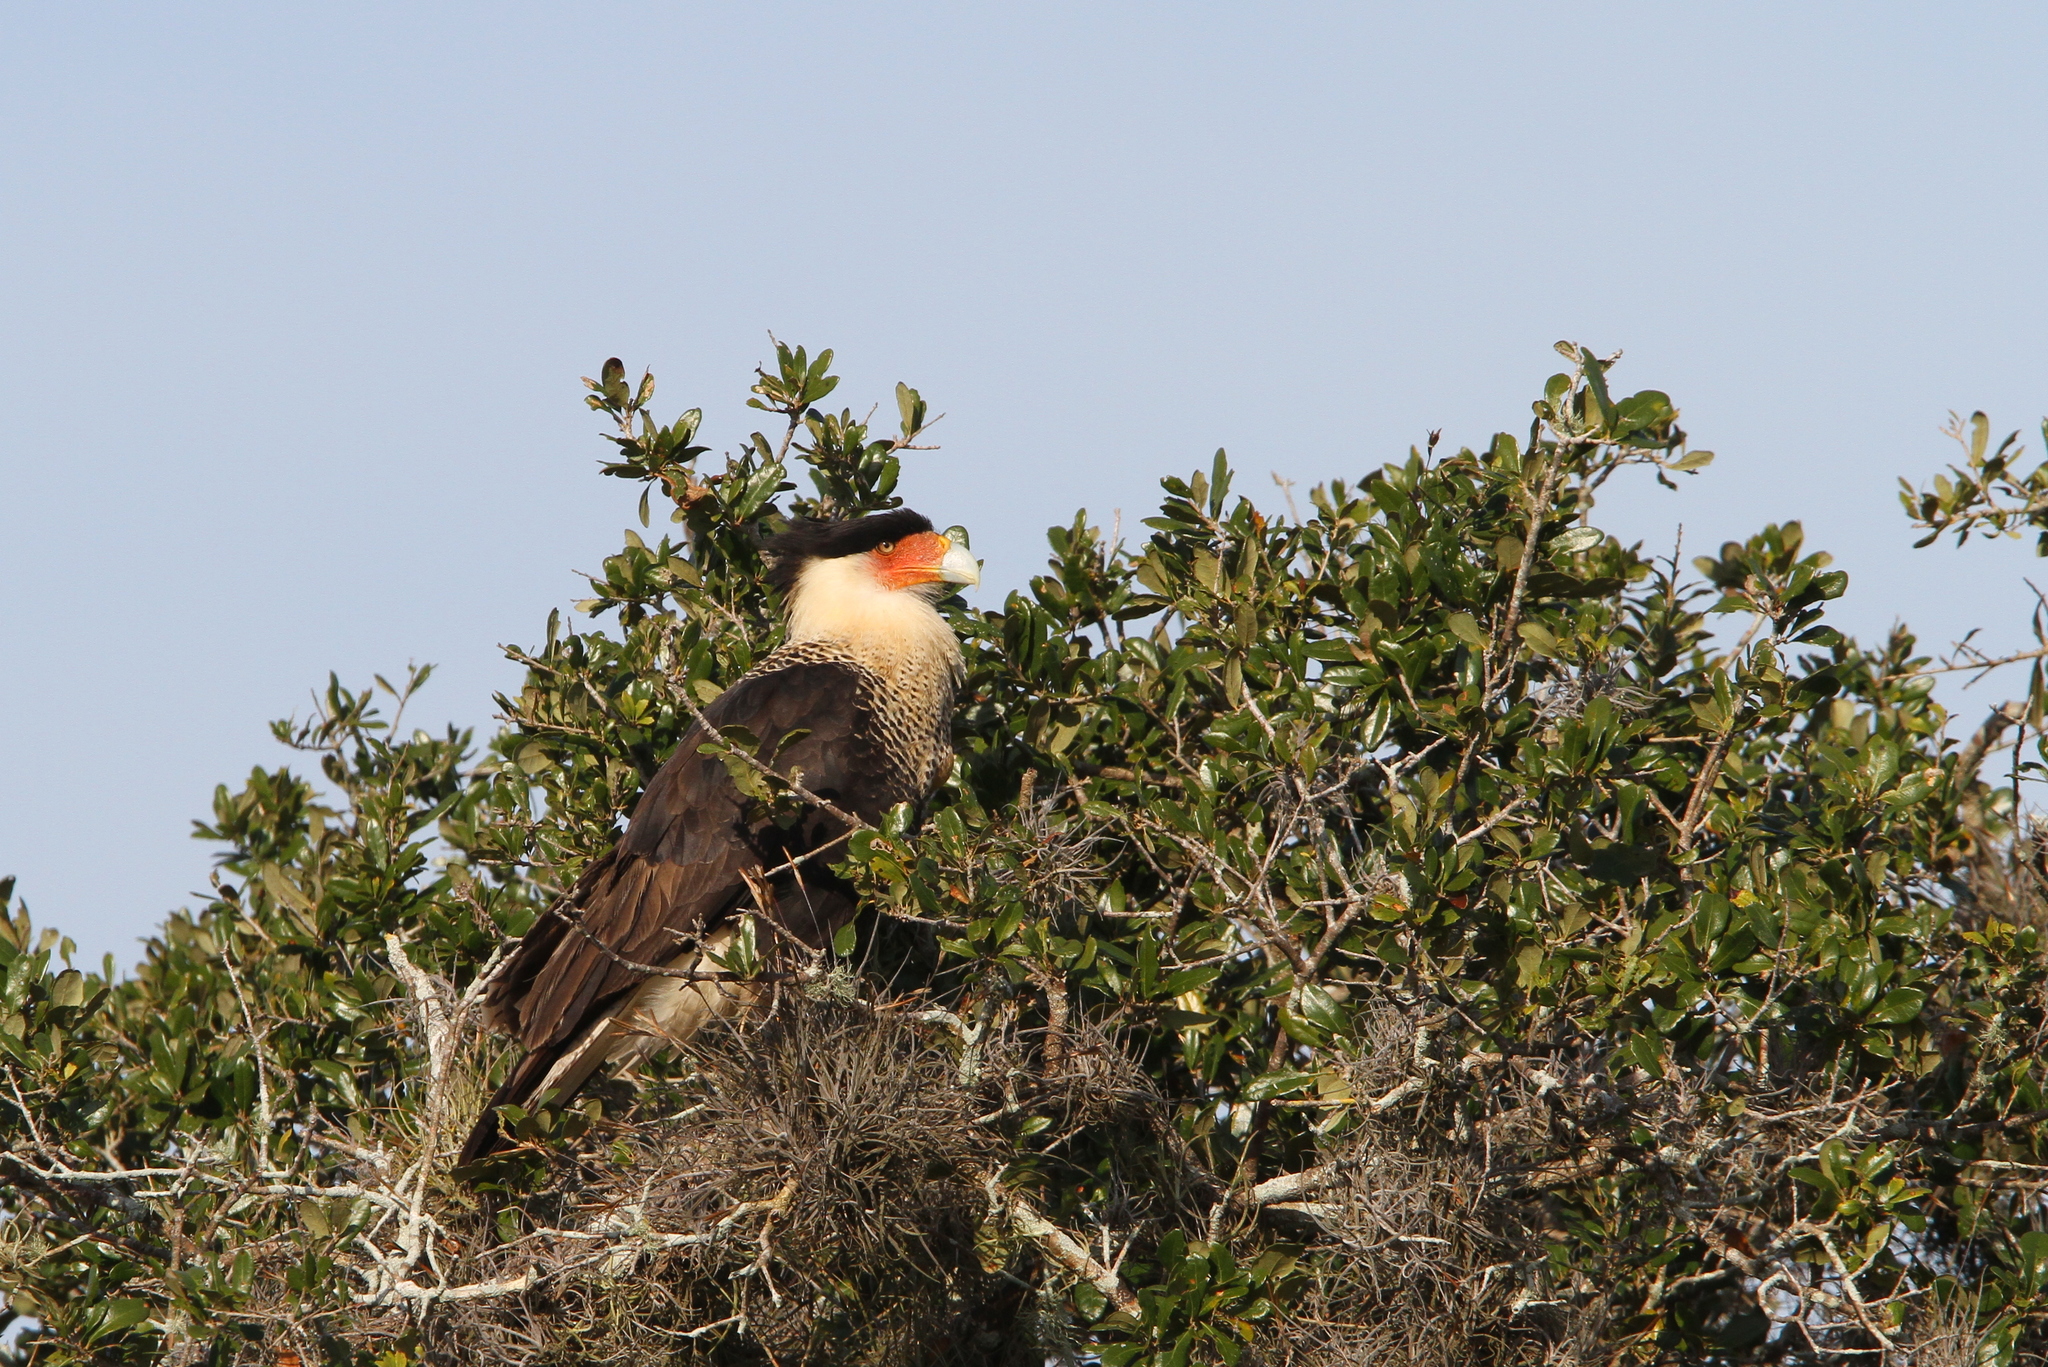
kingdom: Animalia
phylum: Chordata
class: Aves
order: Falconiformes
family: Falconidae
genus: Caracara
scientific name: Caracara plancus
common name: Southern caracara
